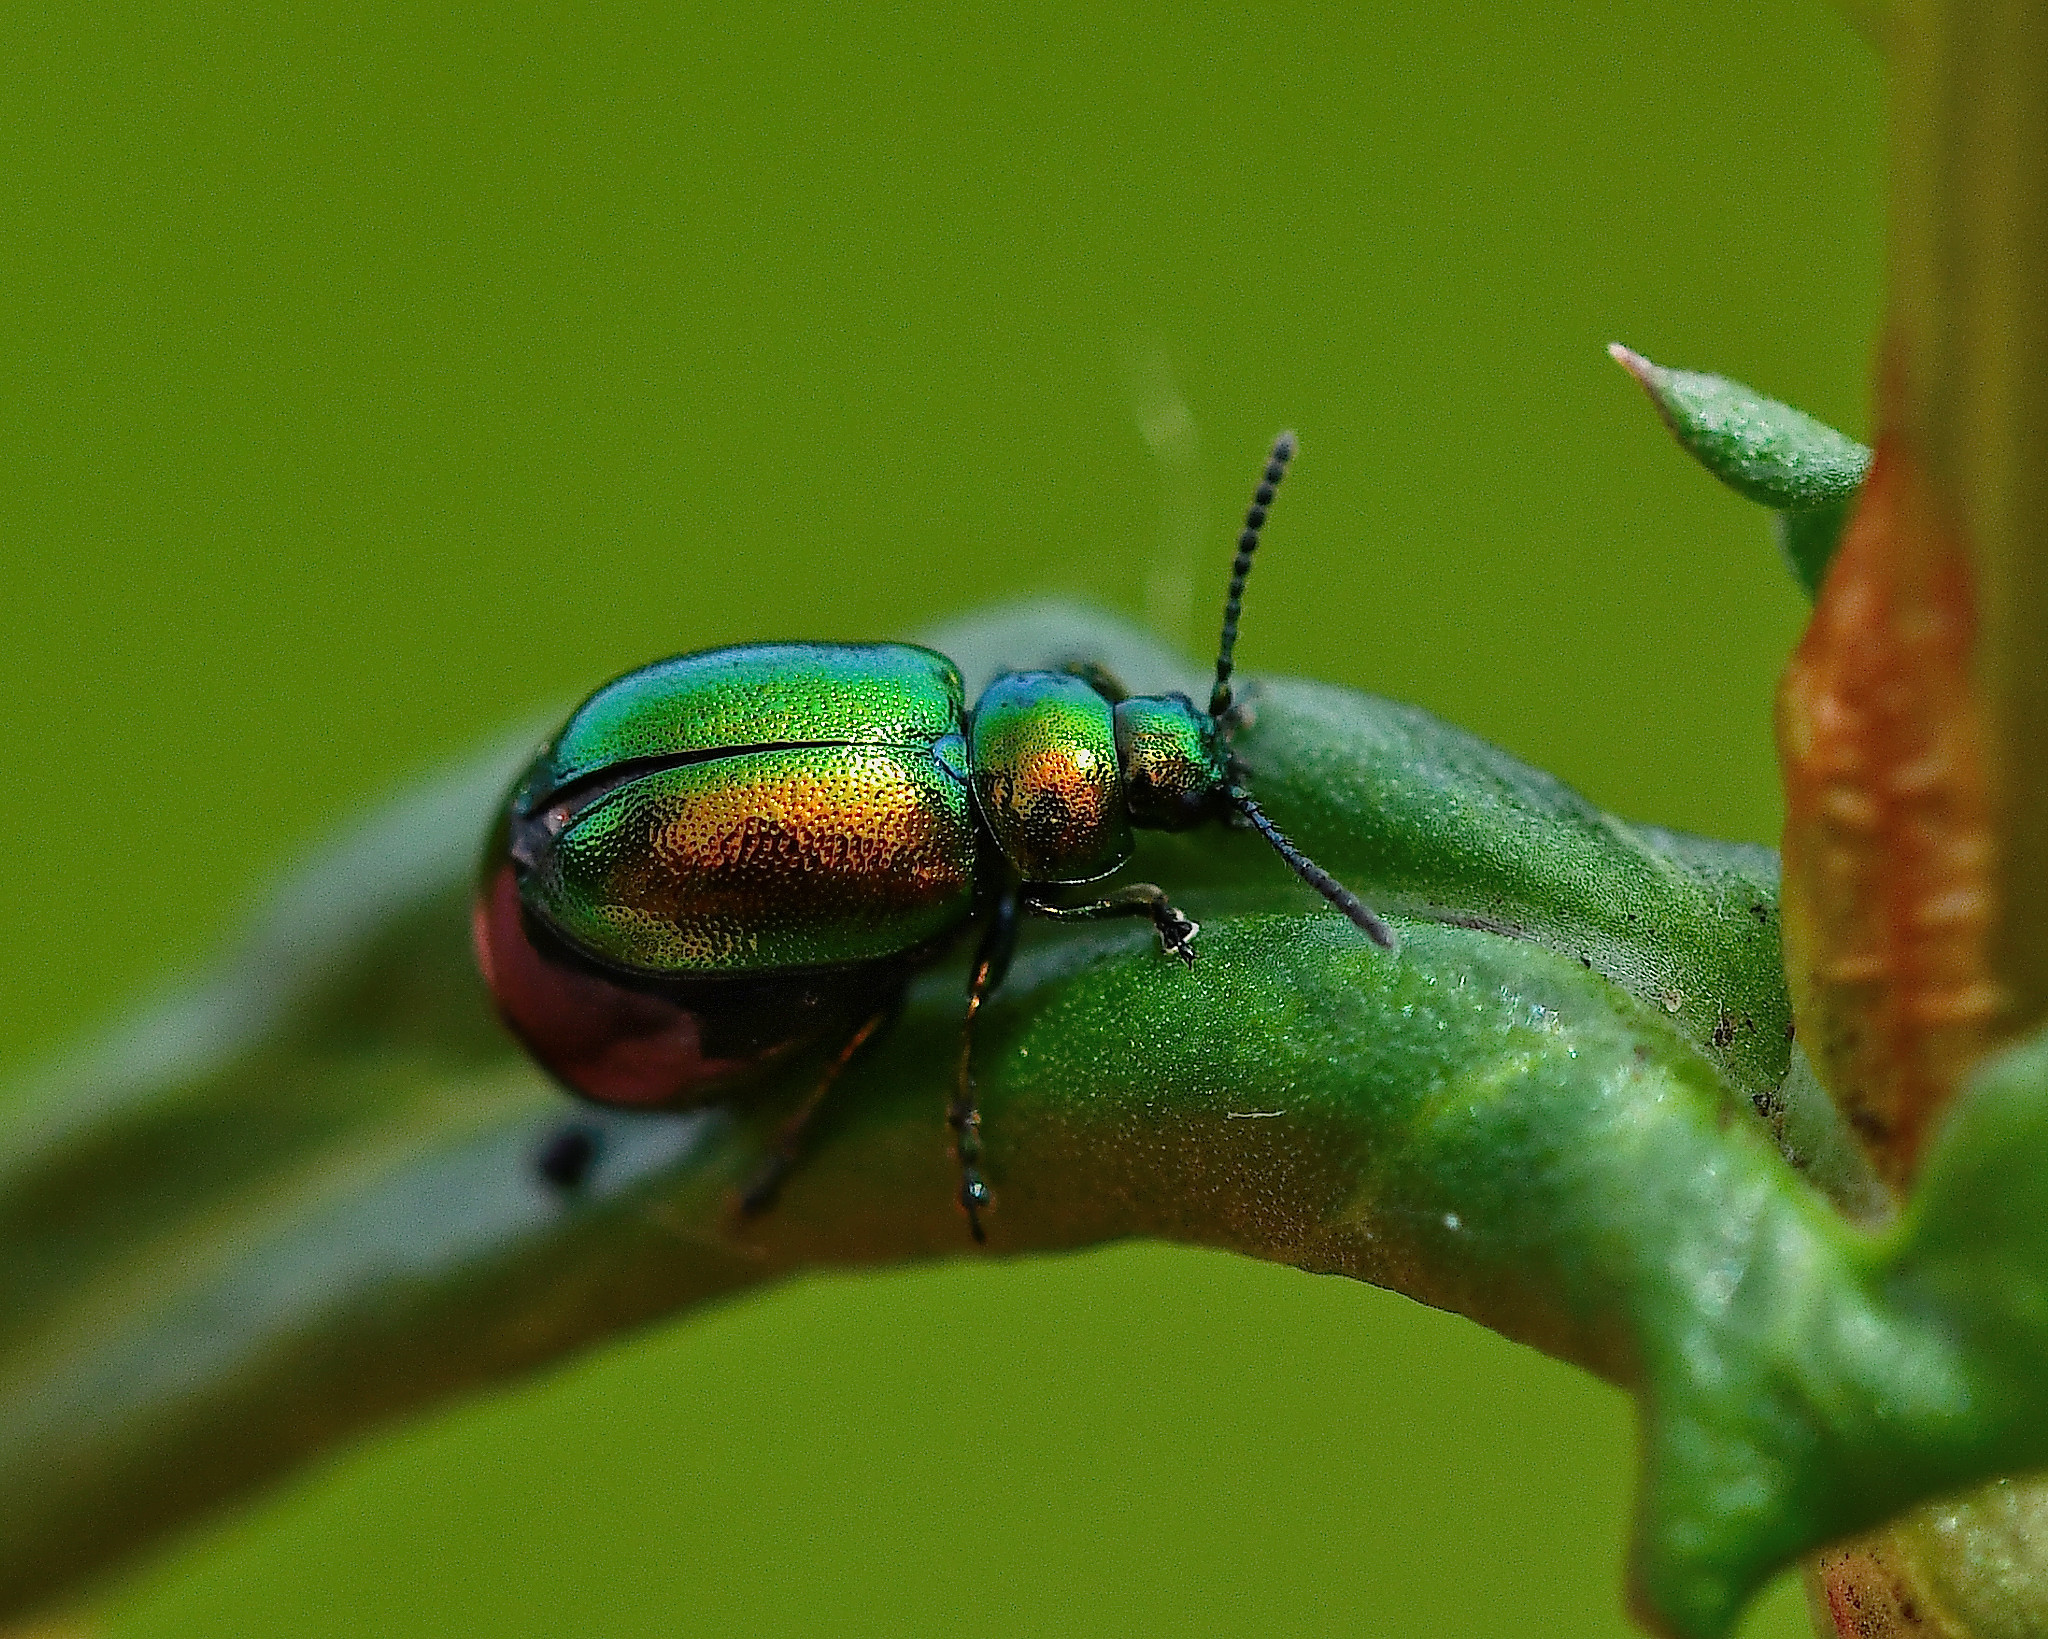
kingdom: Animalia
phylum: Arthropoda
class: Insecta
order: Coleoptera
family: Chrysomelidae
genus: Gastrophysa
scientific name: Gastrophysa viridula
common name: Green dock beetle
